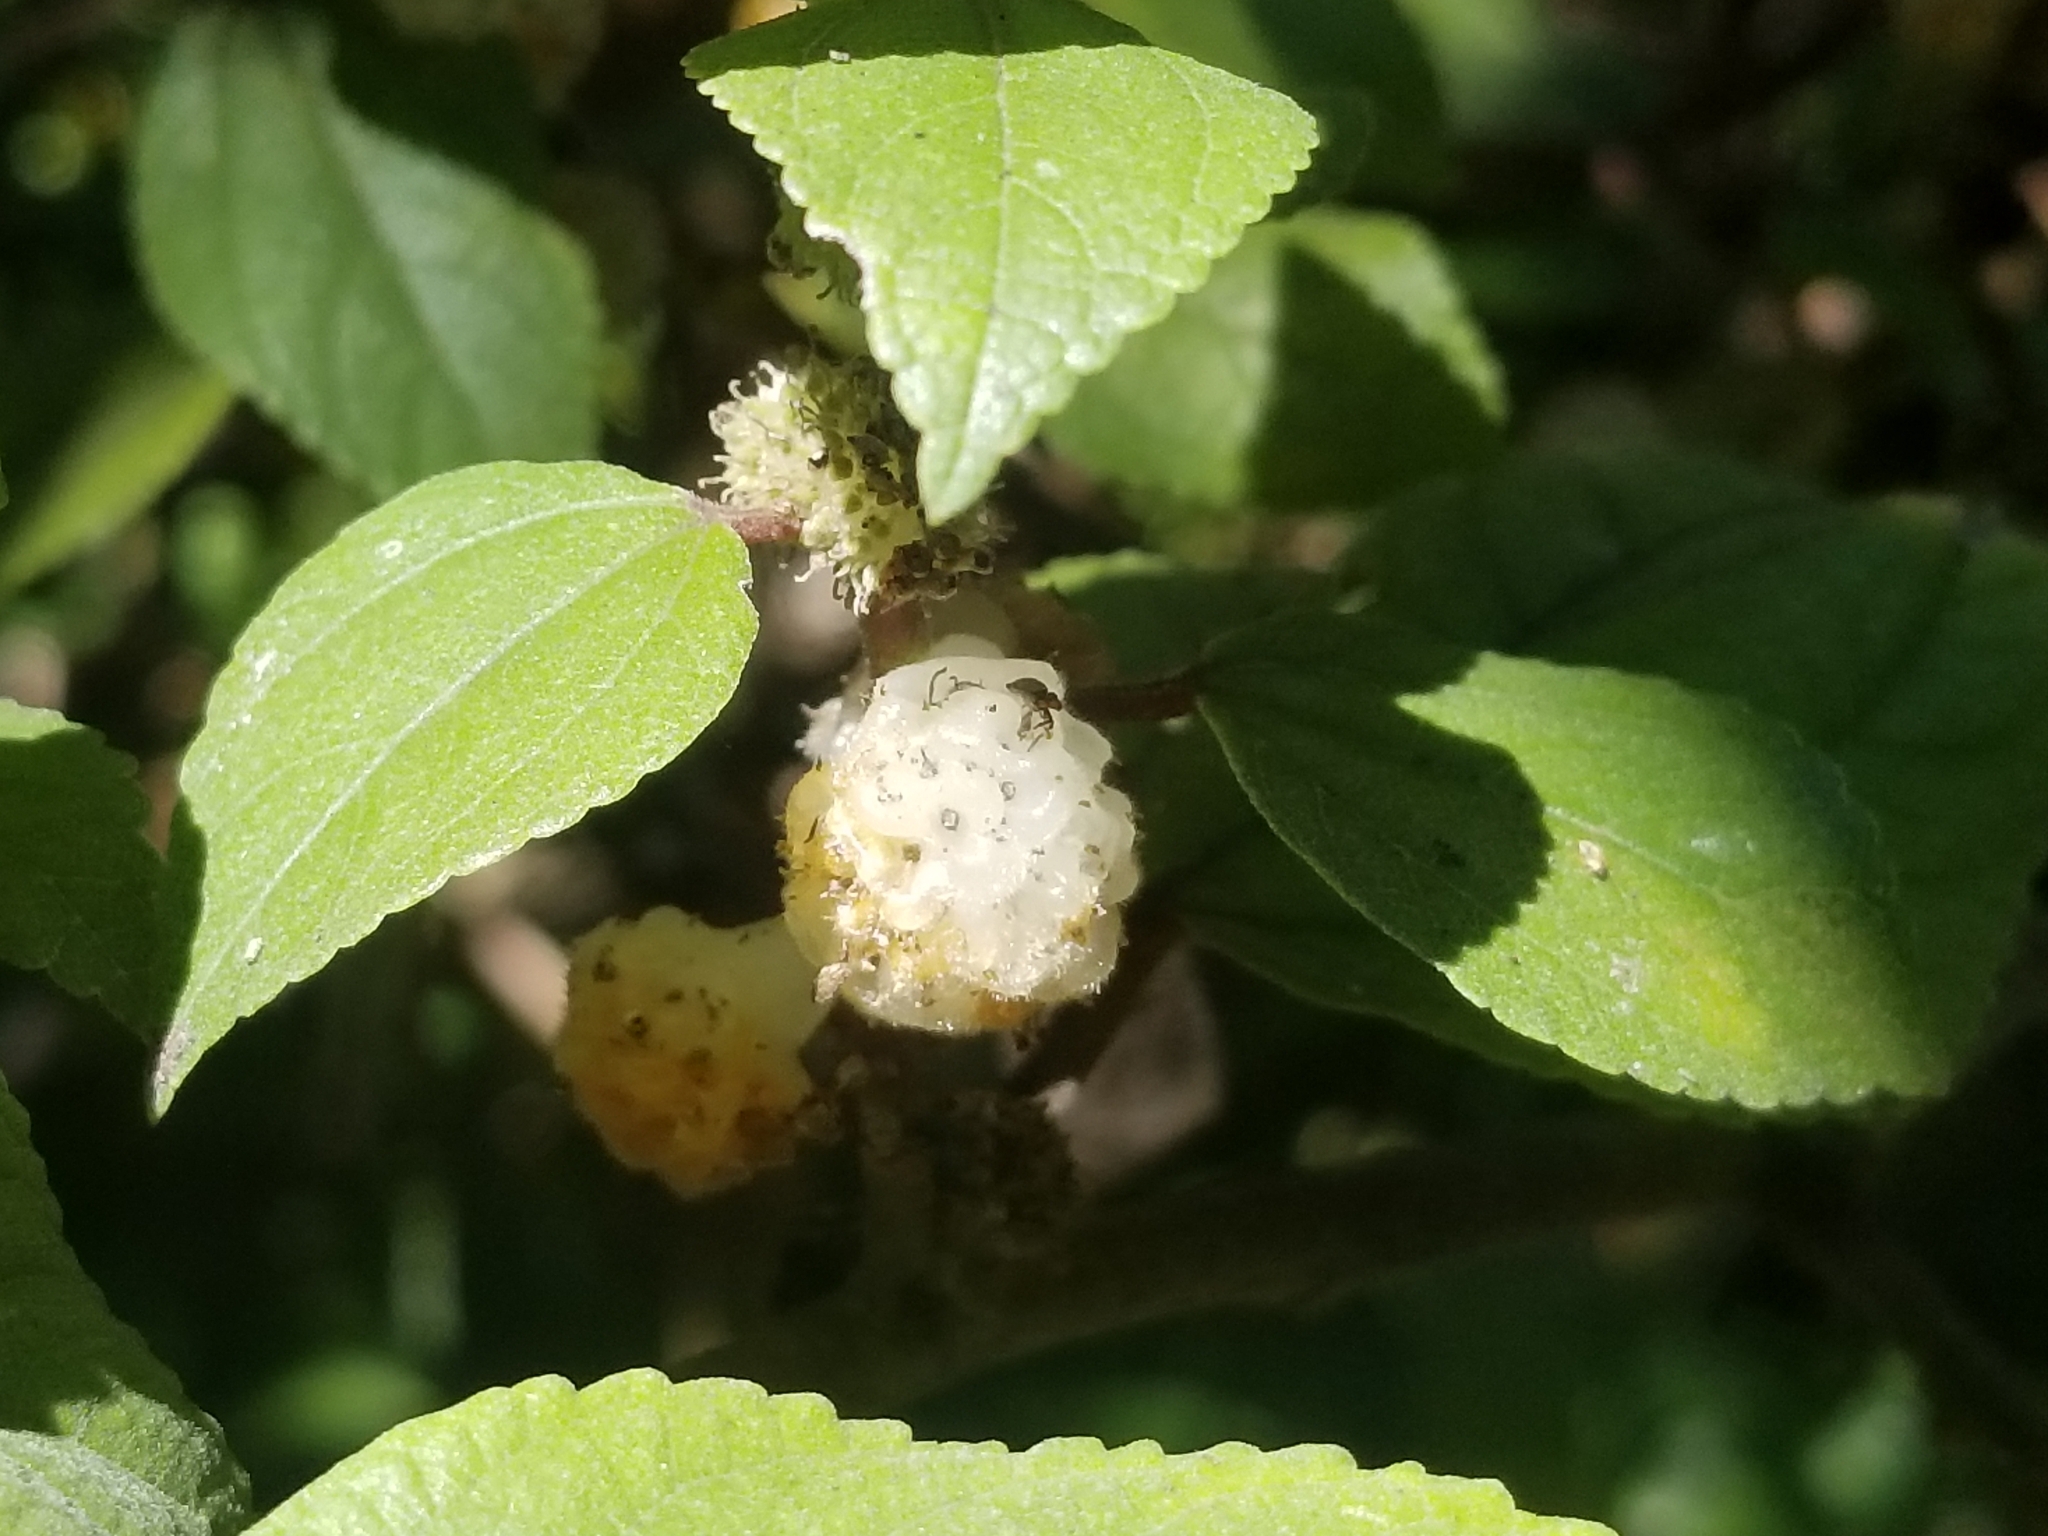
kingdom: Plantae
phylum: Tracheophyta
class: Magnoliopsida
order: Rosales
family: Urticaceae
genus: Pipturus
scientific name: Pipturus albidus
